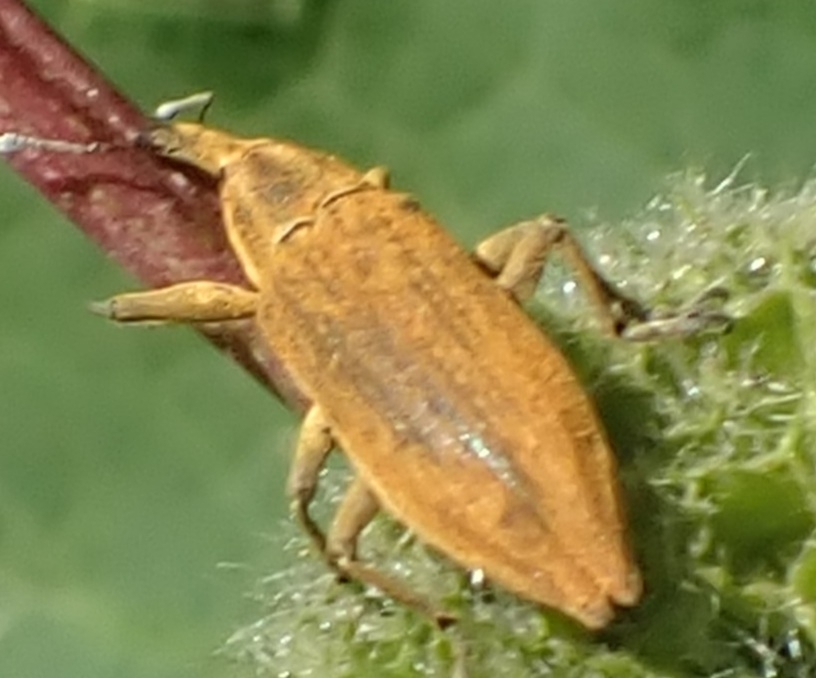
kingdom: Animalia
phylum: Arthropoda
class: Insecta
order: Coleoptera
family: Curculionidae
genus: Lixus
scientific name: Lixus iridis
